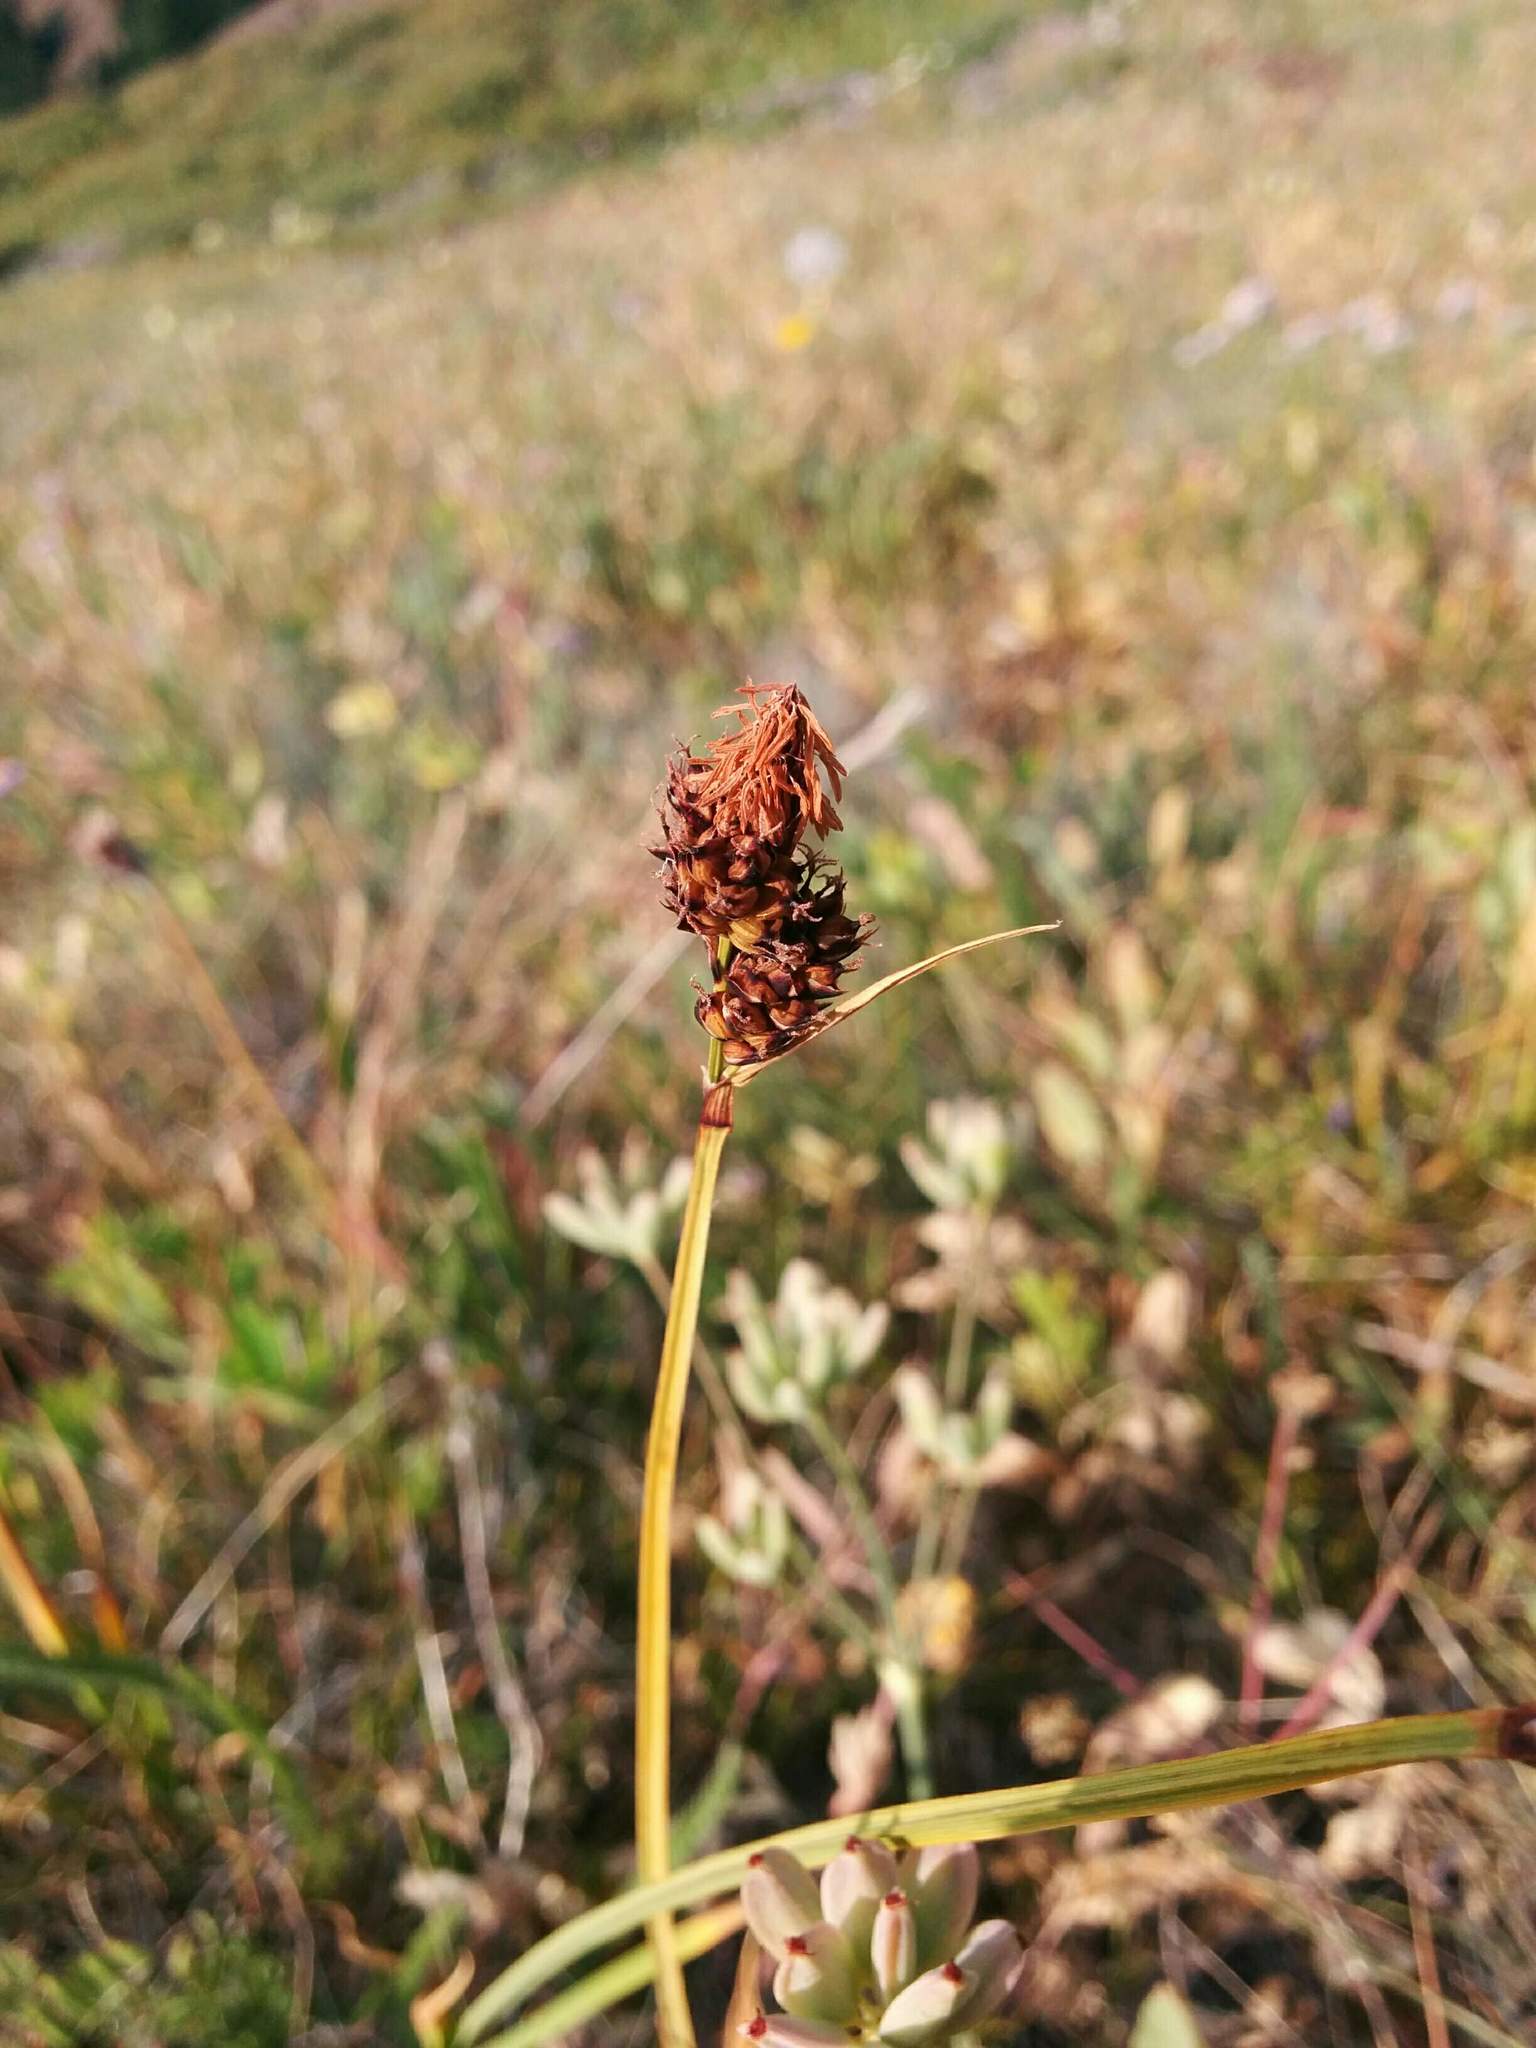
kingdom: Plantae
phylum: Tracheophyta
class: Liliopsida
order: Poales
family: Cyperaceae
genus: Carex
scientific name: Carex raynoldsii
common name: Raynolds' sedge
